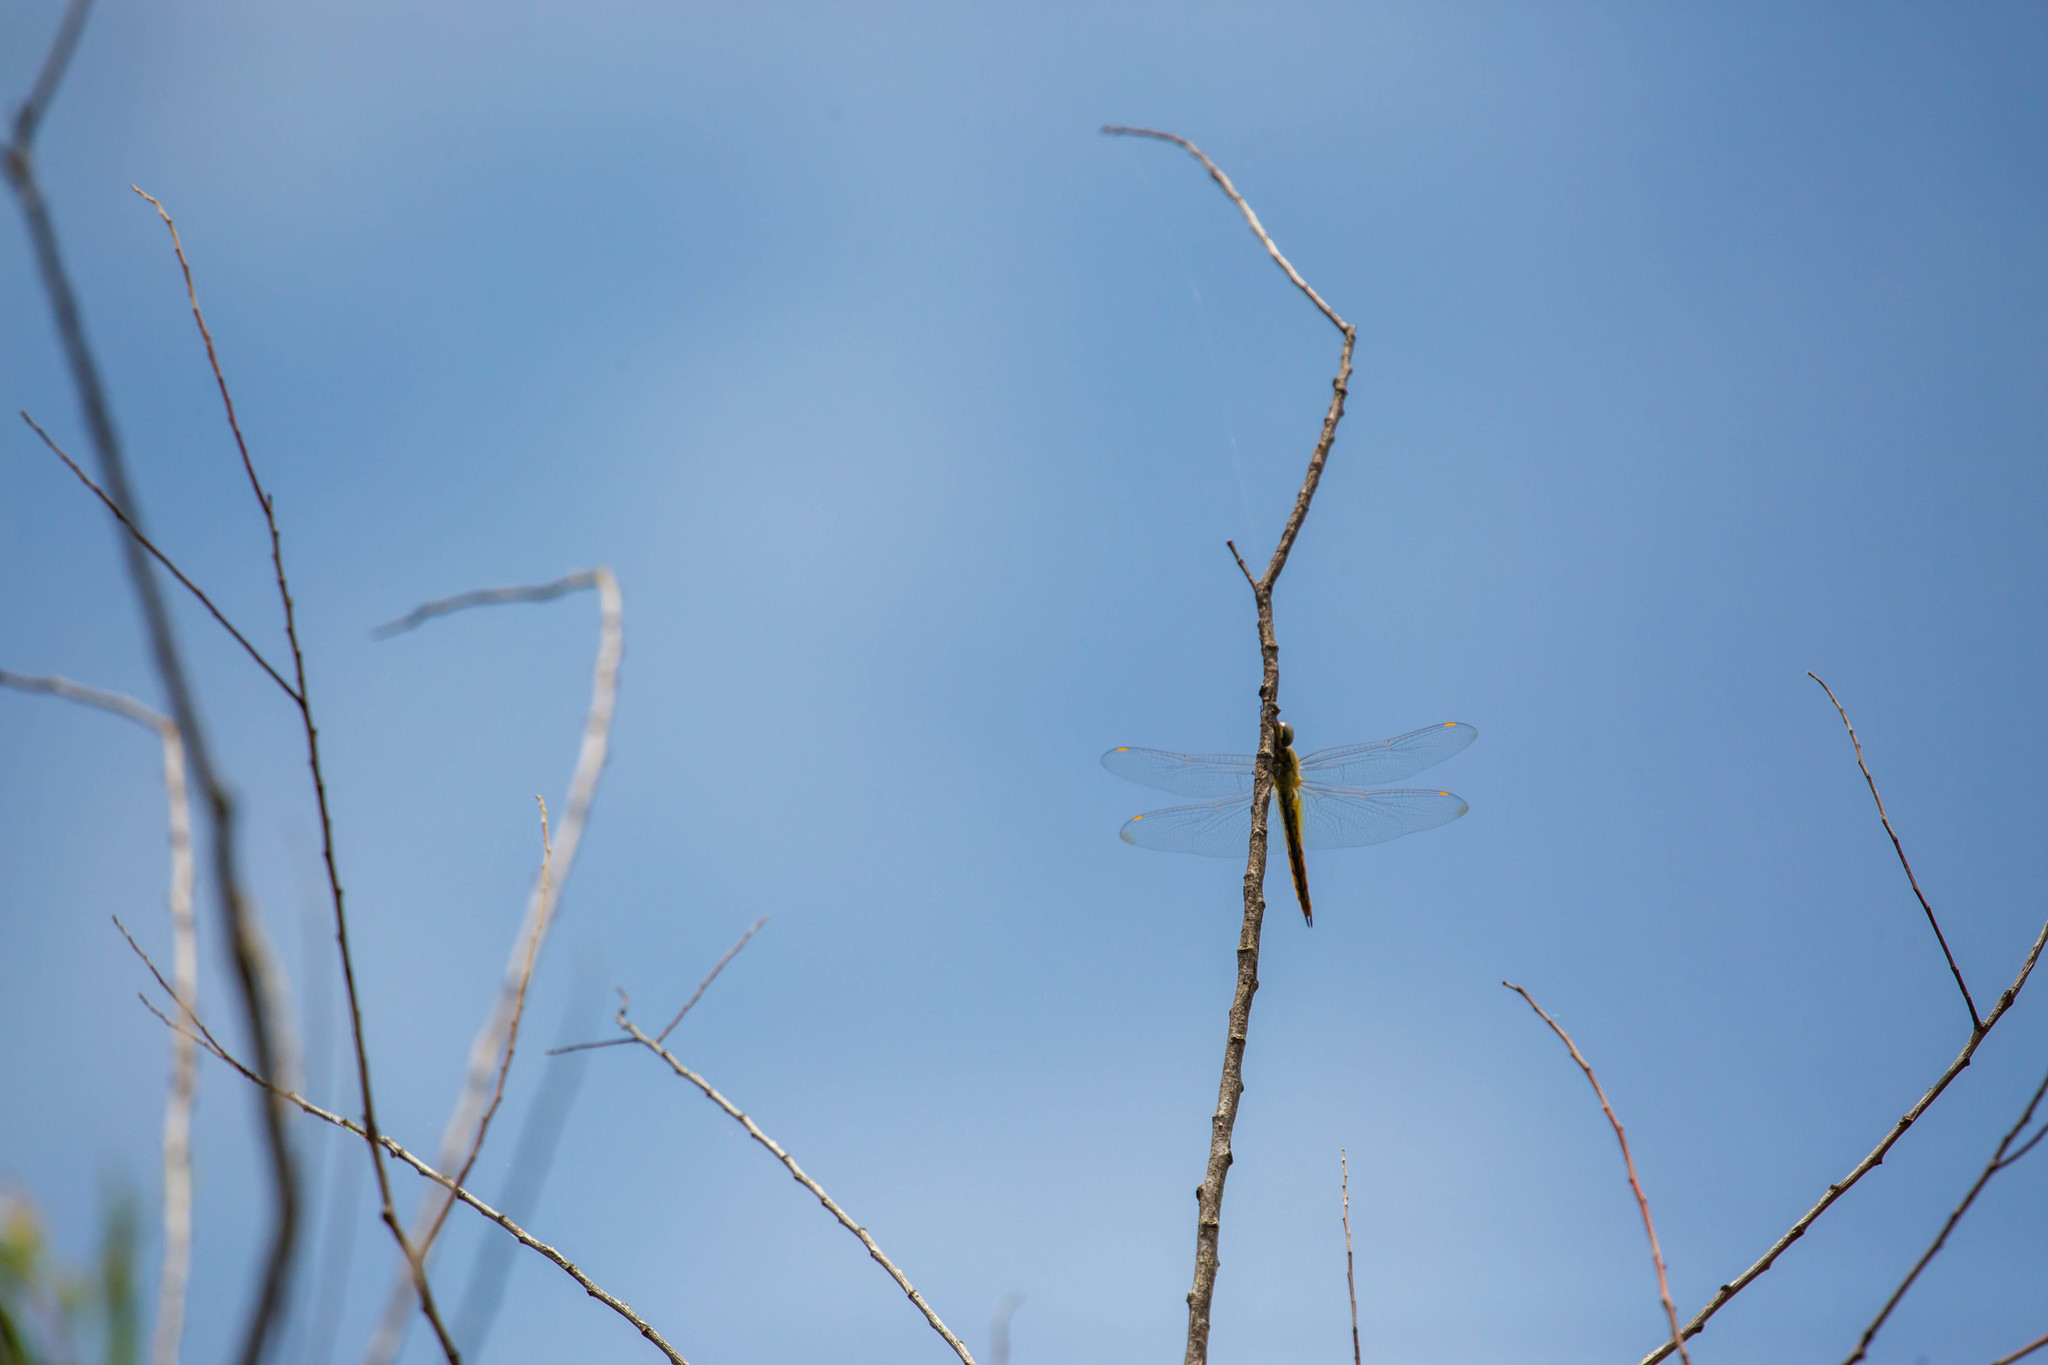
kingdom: Animalia
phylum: Arthropoda
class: Insecta
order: Odonata
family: Libellulidae
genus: Pantala
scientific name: Pantala flavescens
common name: Wandering glider
